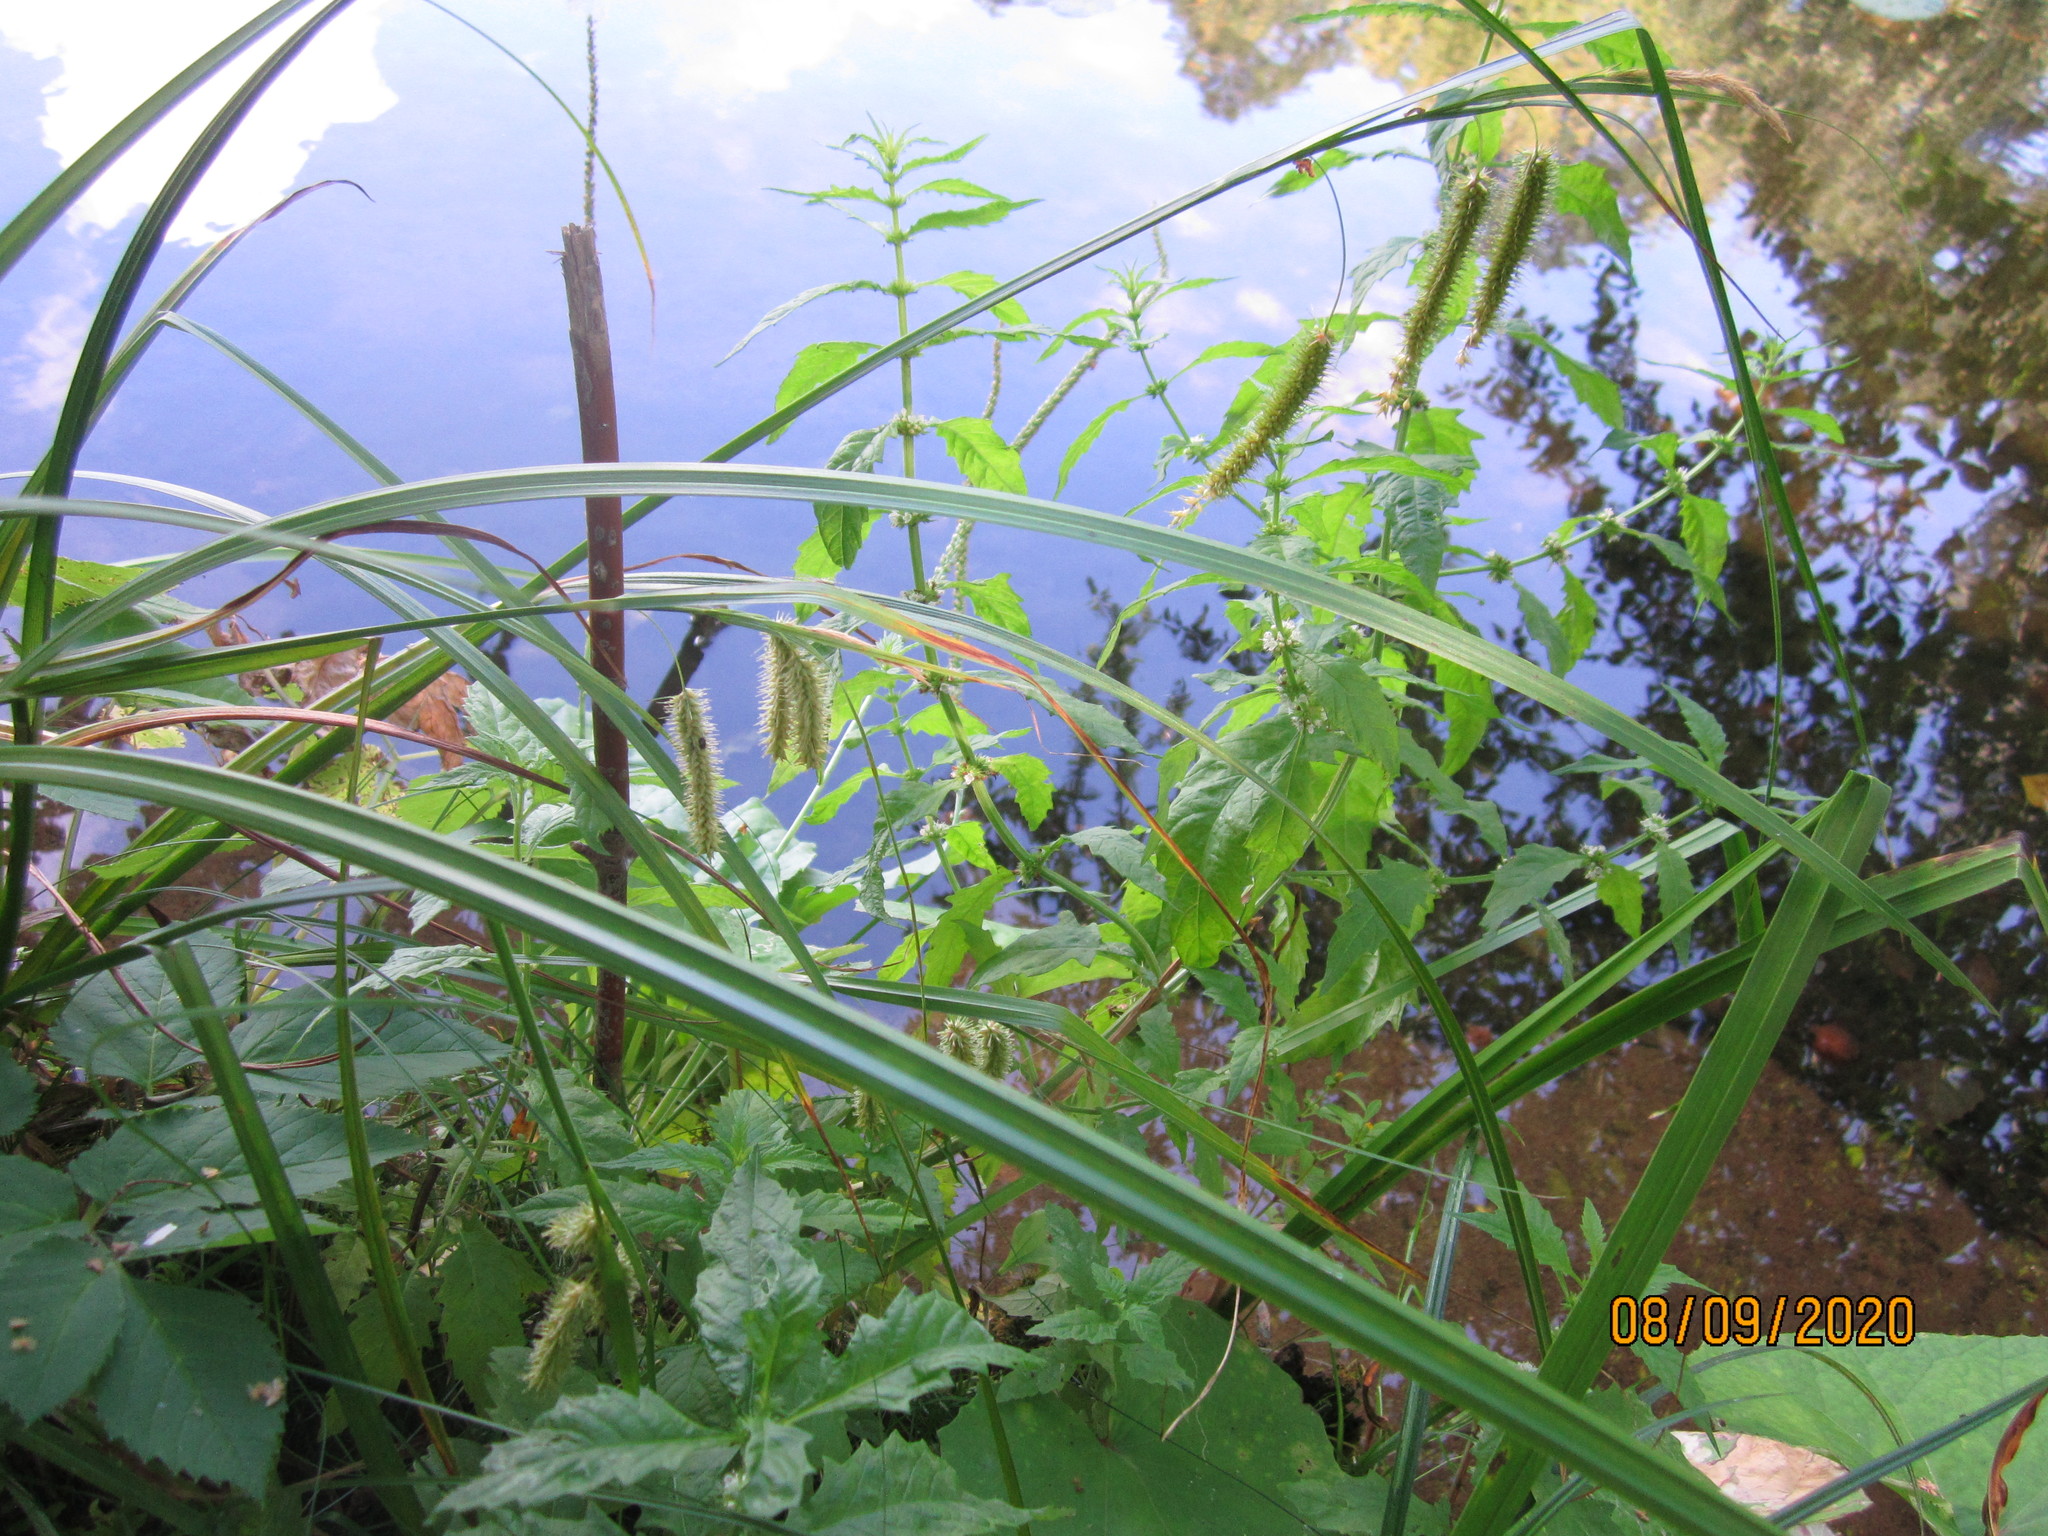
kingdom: Plantae
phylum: Tracheophyta
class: Liliopsida
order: Poales
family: Cyperaceae
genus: Carex
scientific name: Carex pseudocyperus
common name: Cyperus sedge
